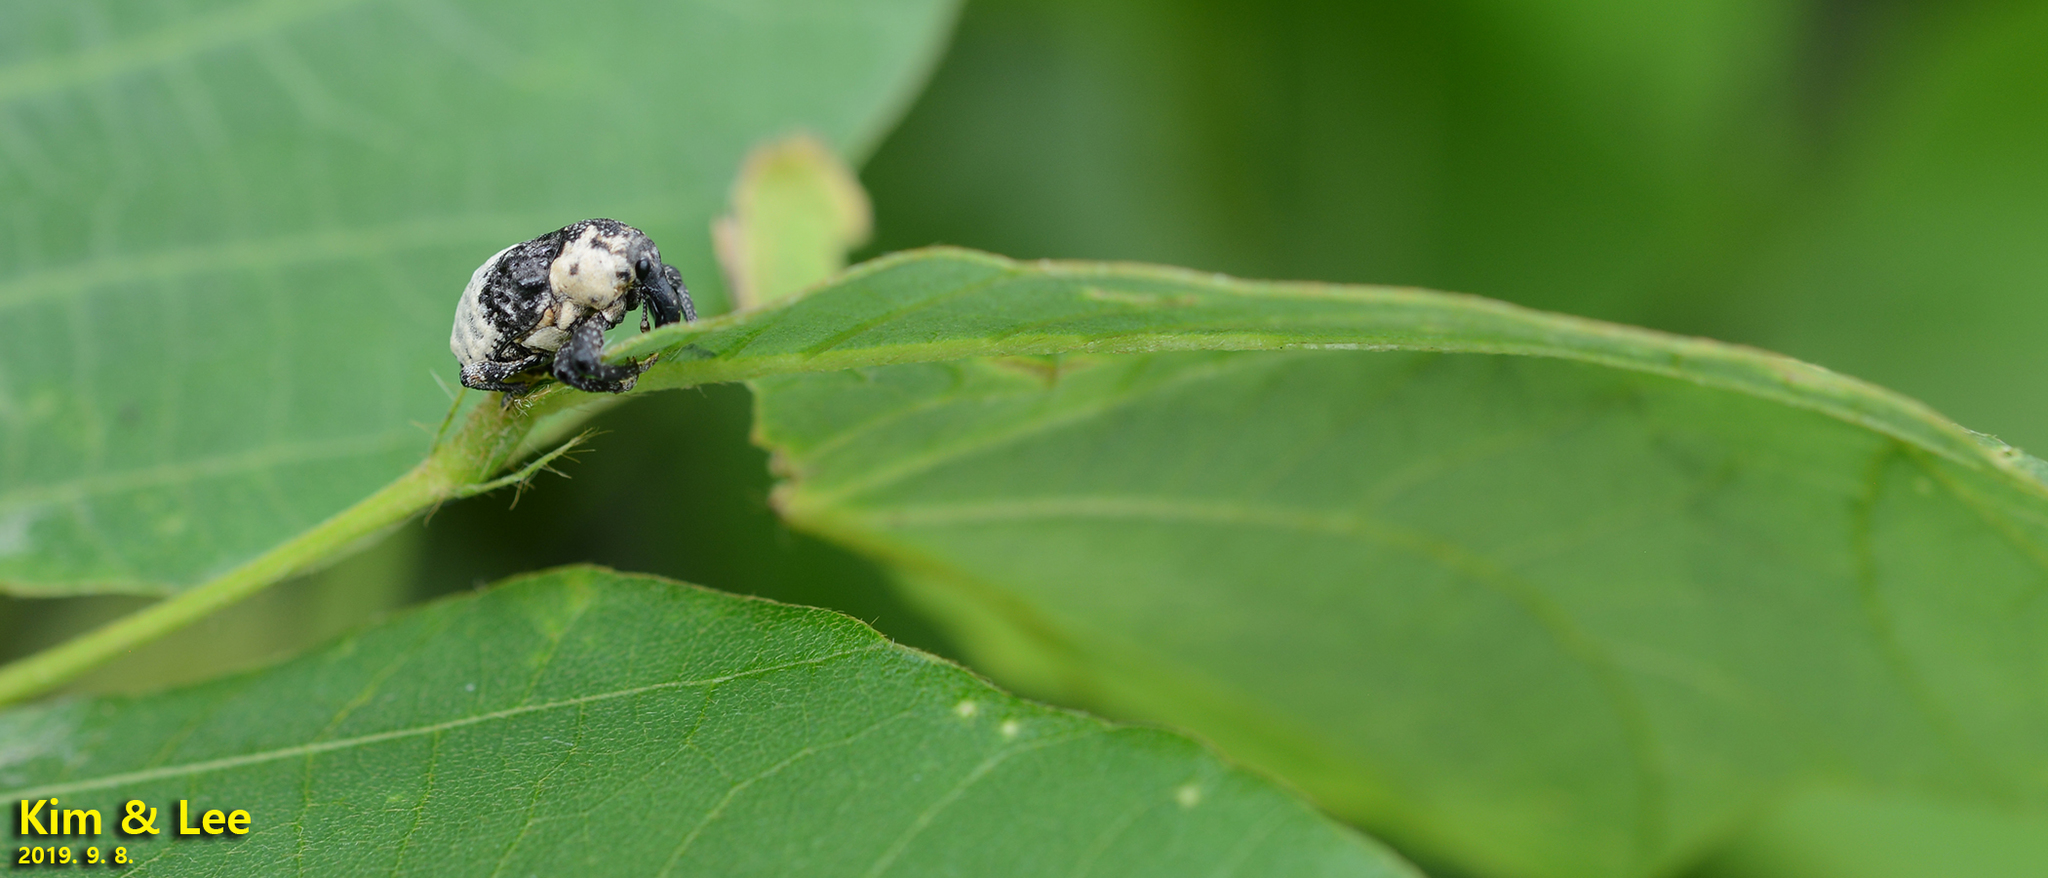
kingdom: Animalia
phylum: Arthropoda
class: Insecta
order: Coleoptera
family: Curculionidae
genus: Alcides
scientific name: Alcides trifidus
